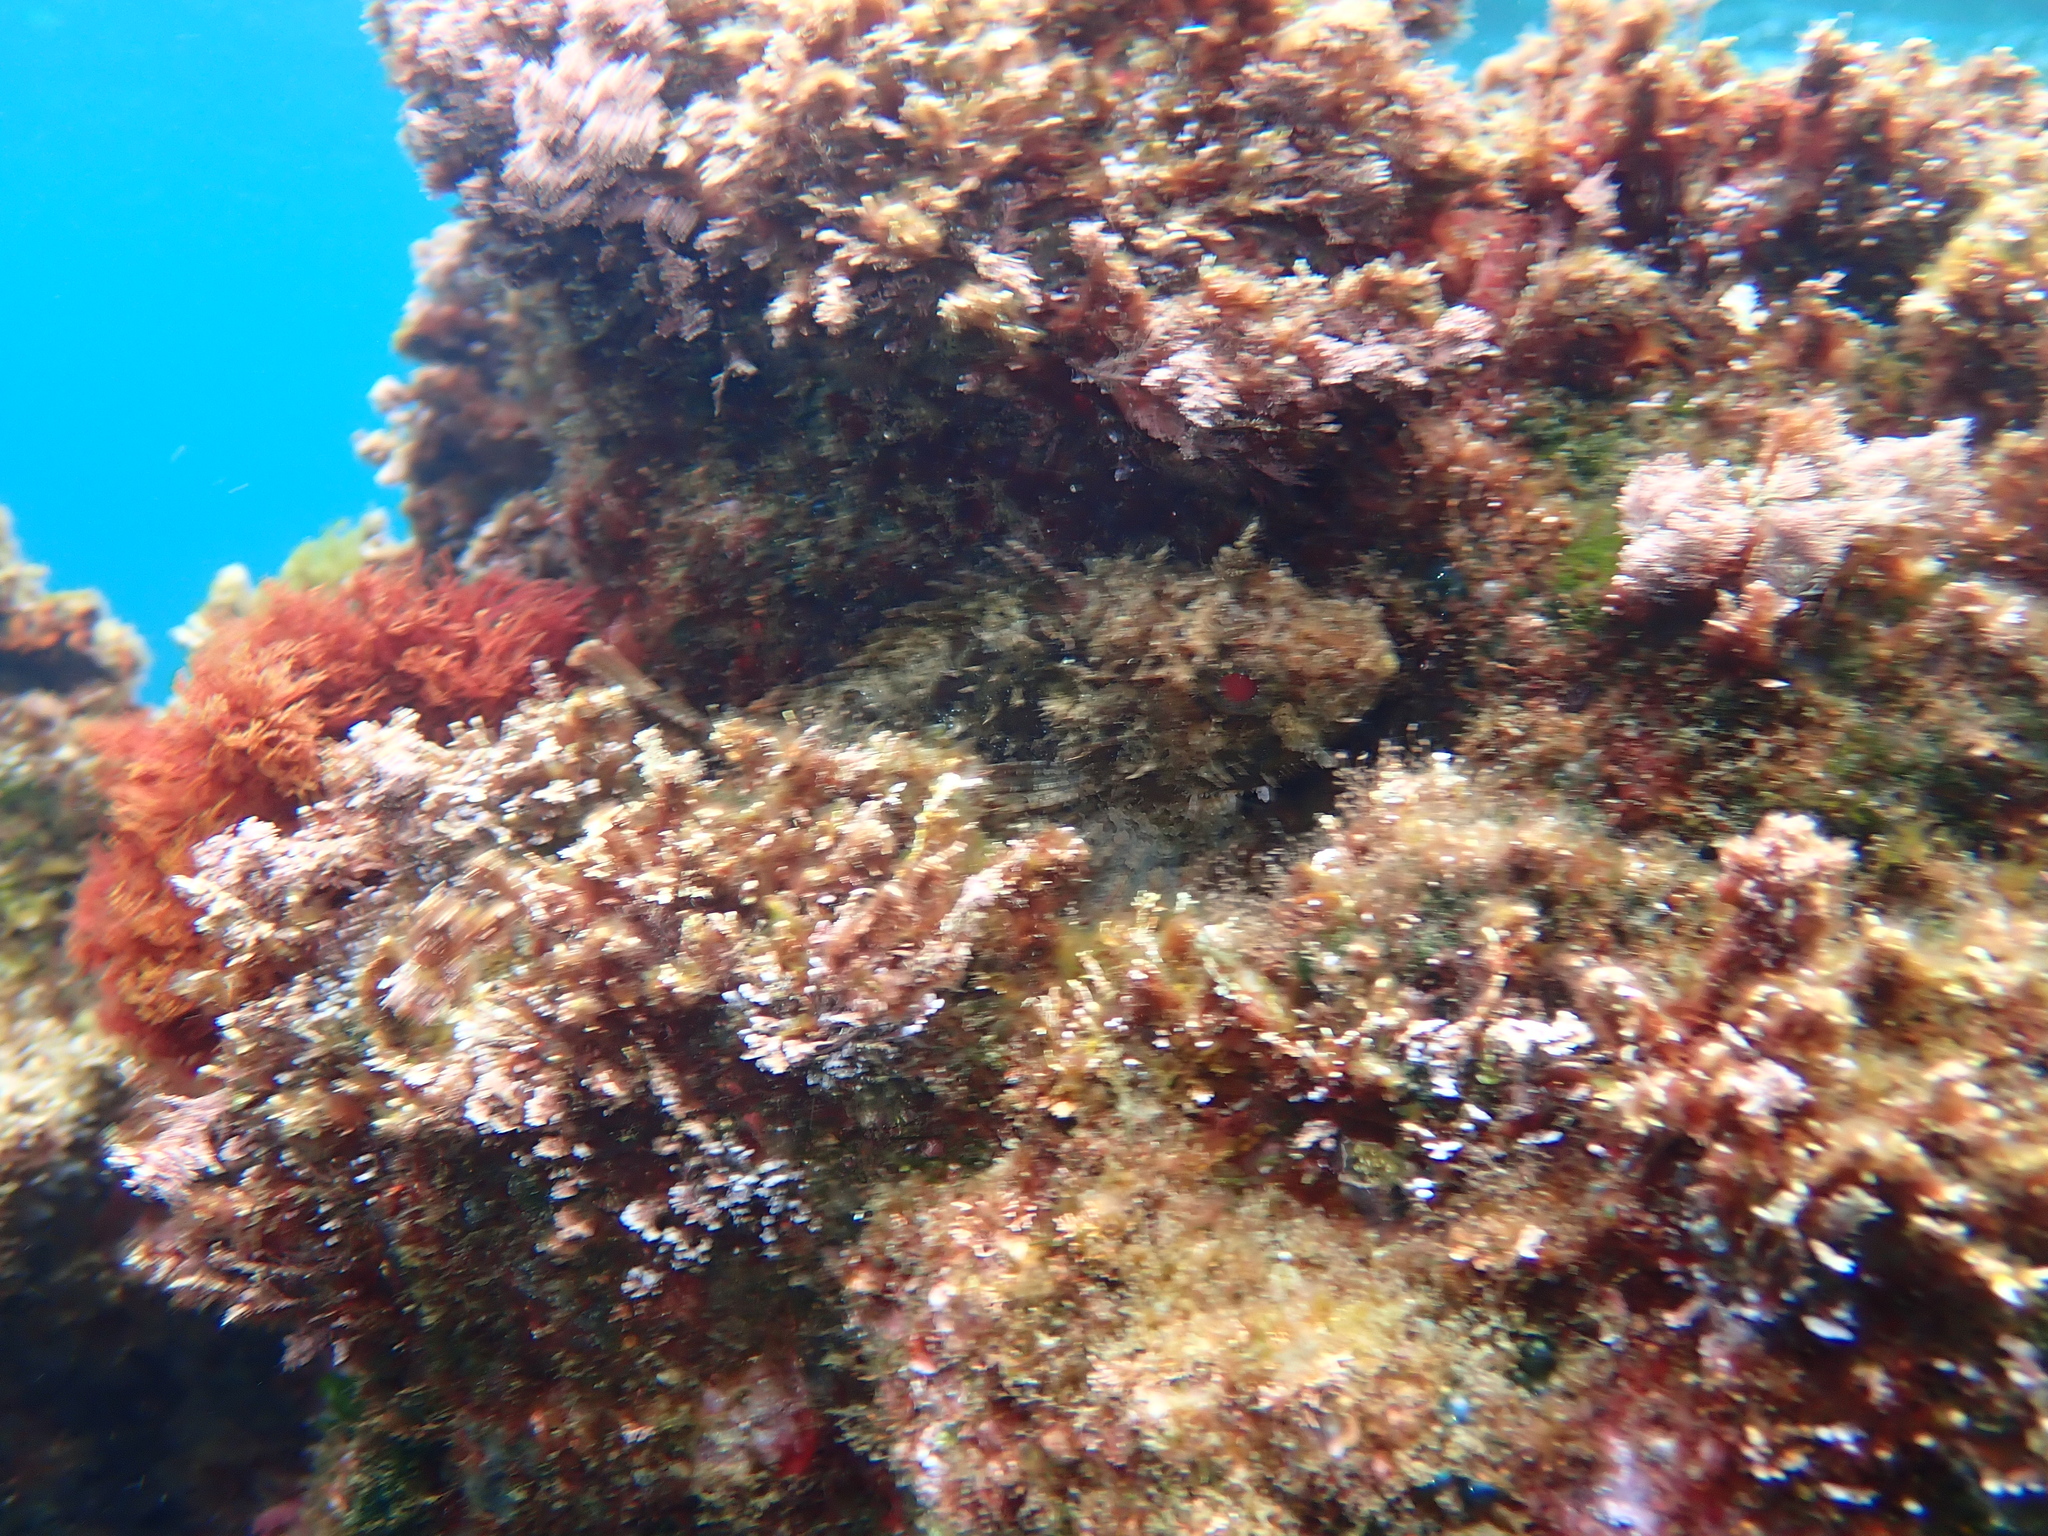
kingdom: Animalia
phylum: Chordata
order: Scorpaeniformes
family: Scorpaenidae
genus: Scorpaena
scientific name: Scorpaena porcus
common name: Black scorpionfish
